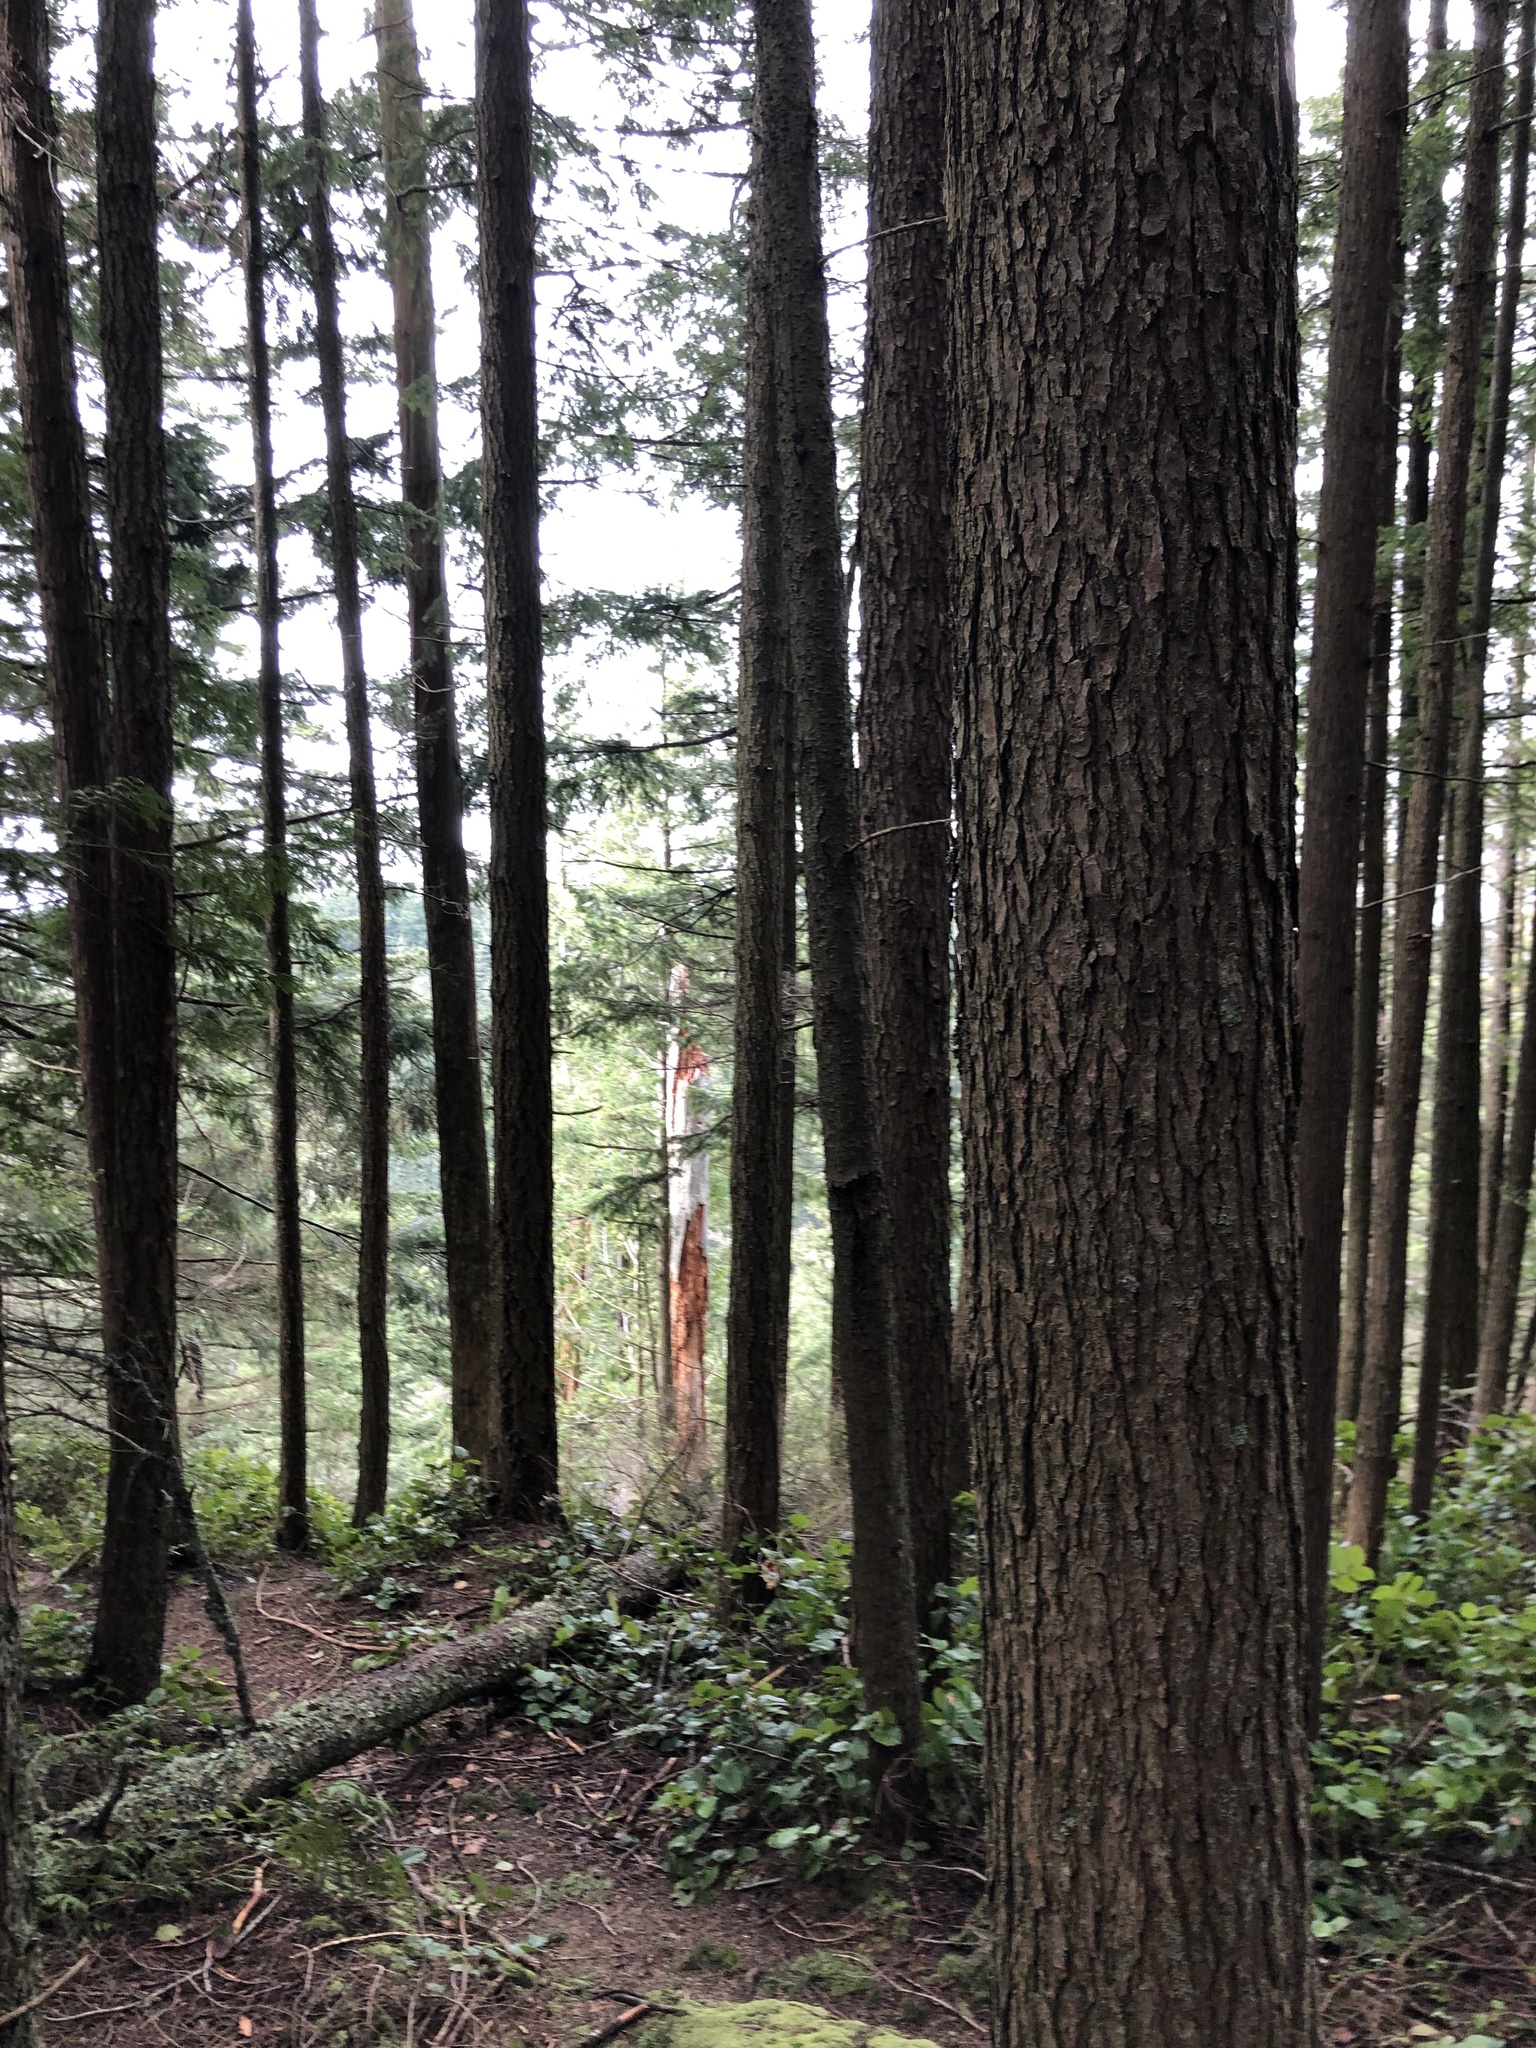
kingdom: Plantae
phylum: Tracheophyta
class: Pinopsida
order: Pinales
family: Pinaceae
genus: Tsuga
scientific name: Tsuga heterophylla
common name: Western hemlock
